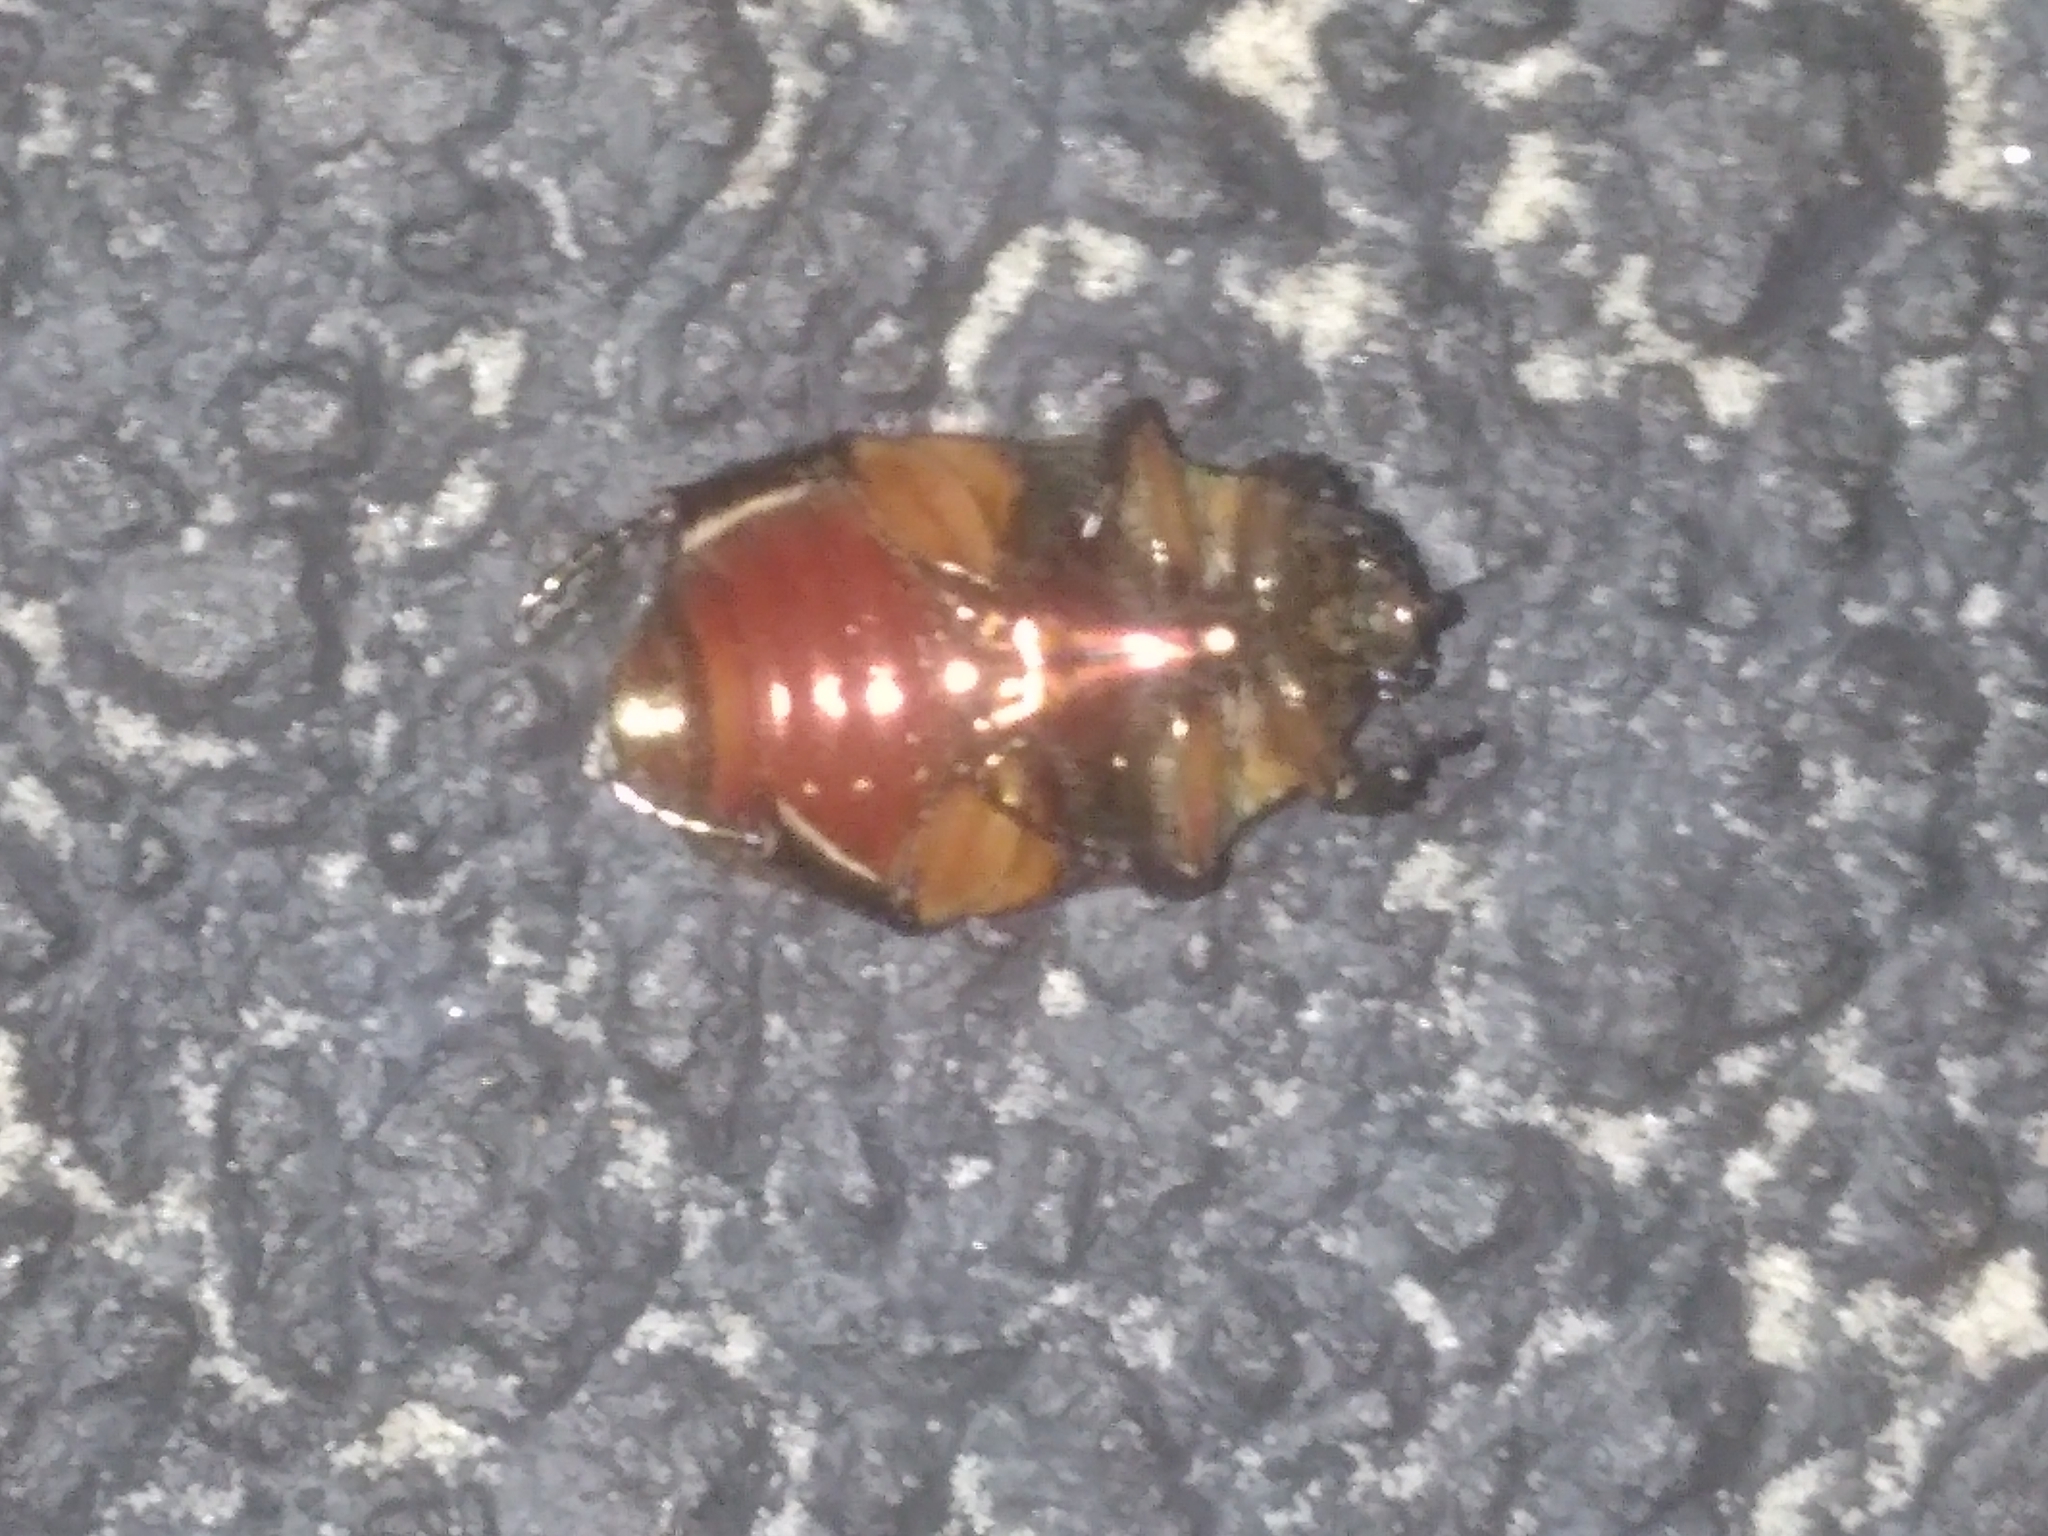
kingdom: Animalia
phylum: Arthropoda
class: Insecta
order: Coleoptera
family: Scarabaeidae
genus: Cotinis
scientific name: Cotinis nitida
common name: Common green june beetle
